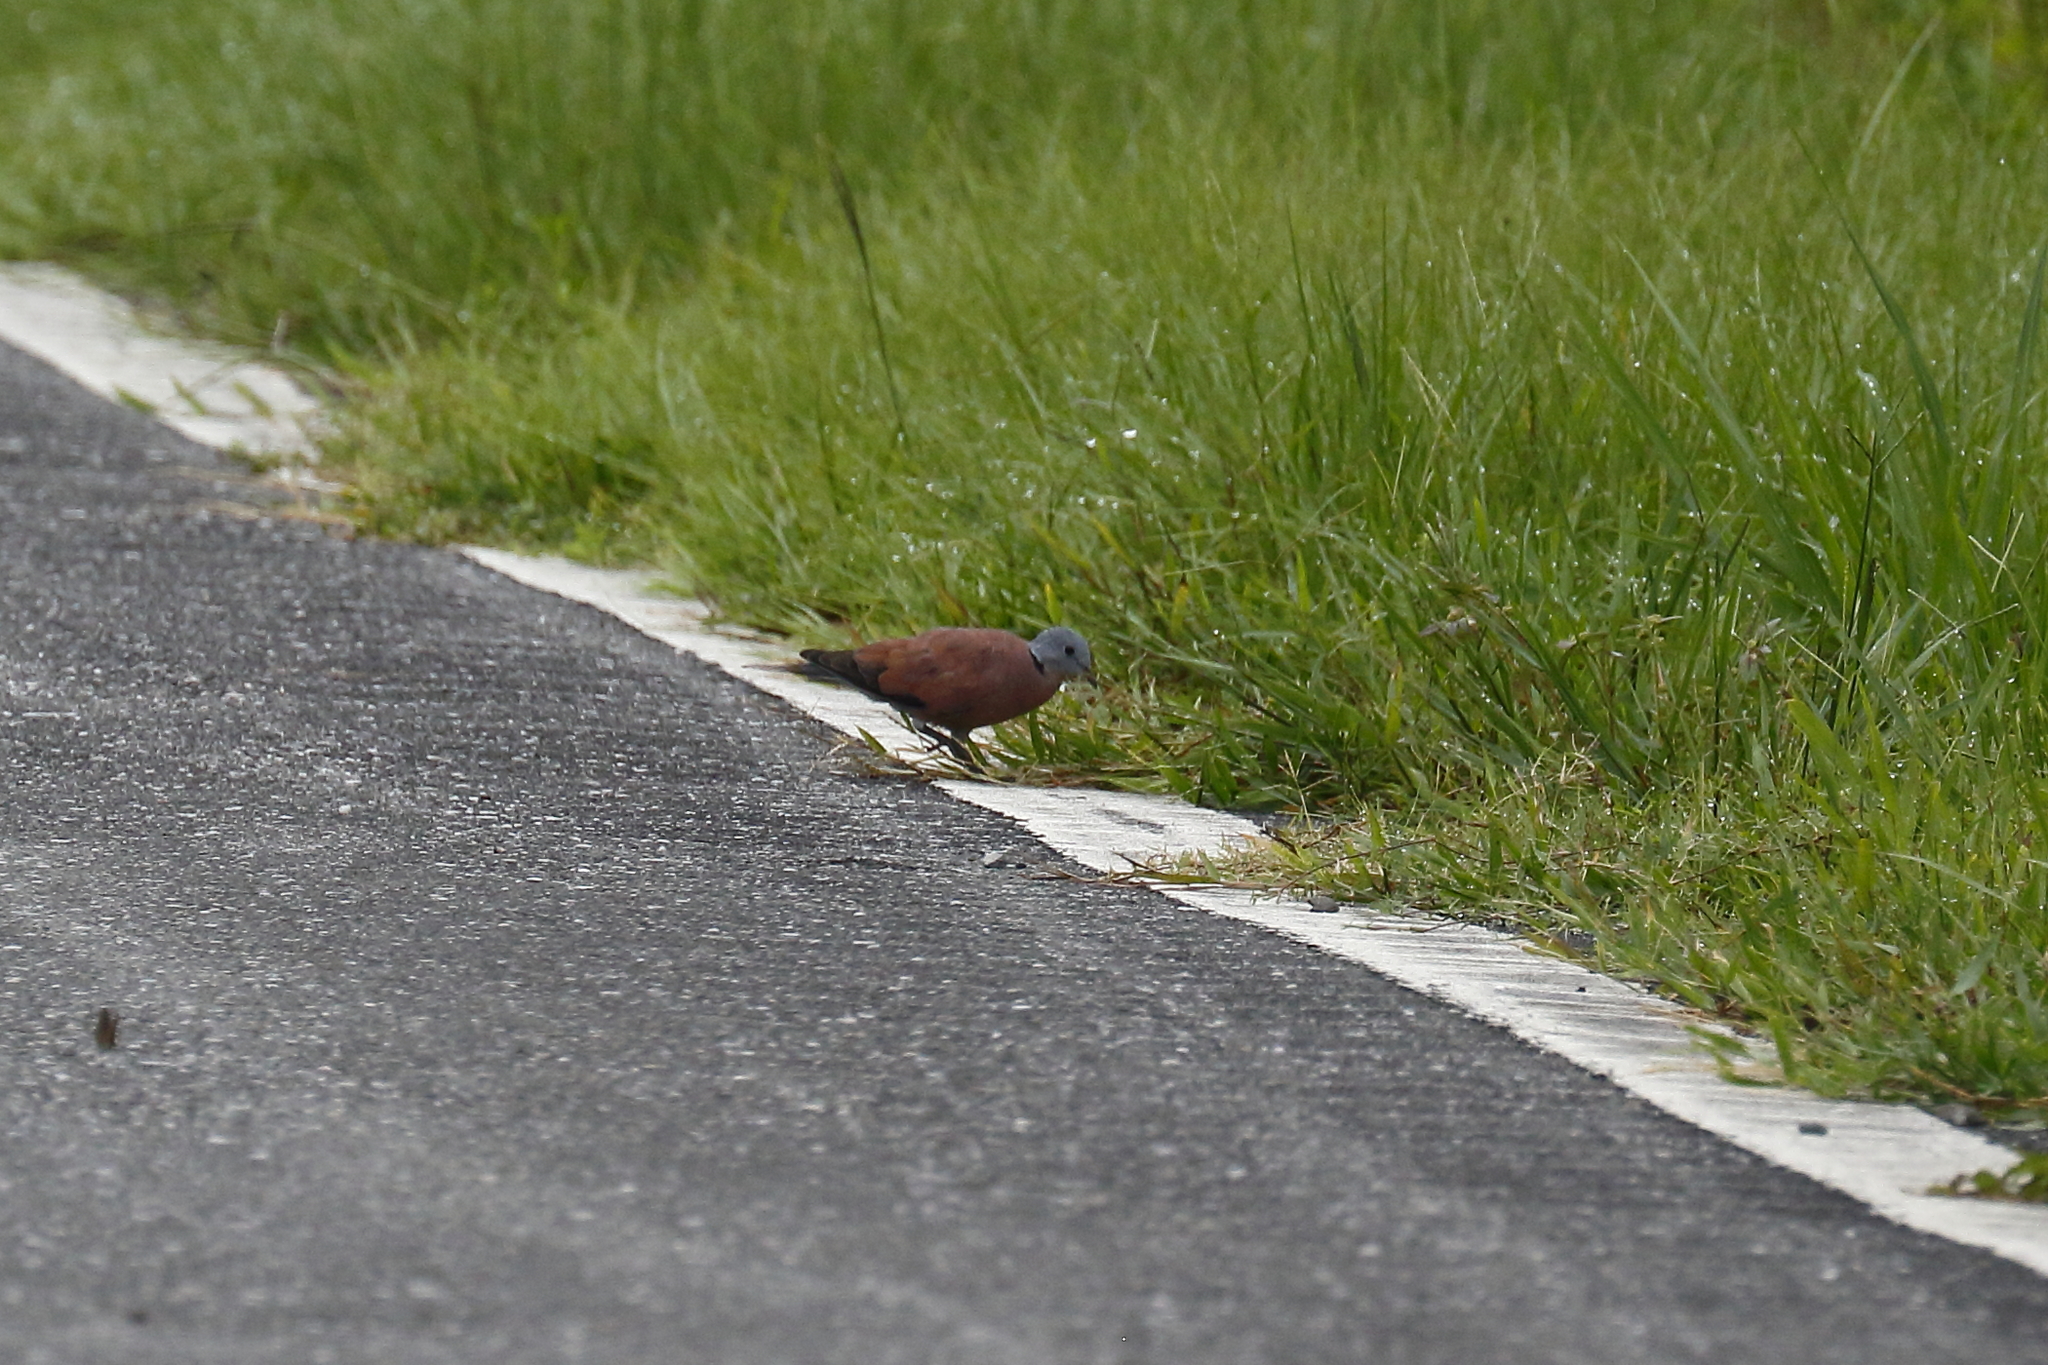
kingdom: Animalia
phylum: Chordata
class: Aves
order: Columbiformes
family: Columbidae
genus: Streptopelia
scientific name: Streptopelia tranquebarica
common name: Red turtle dove
